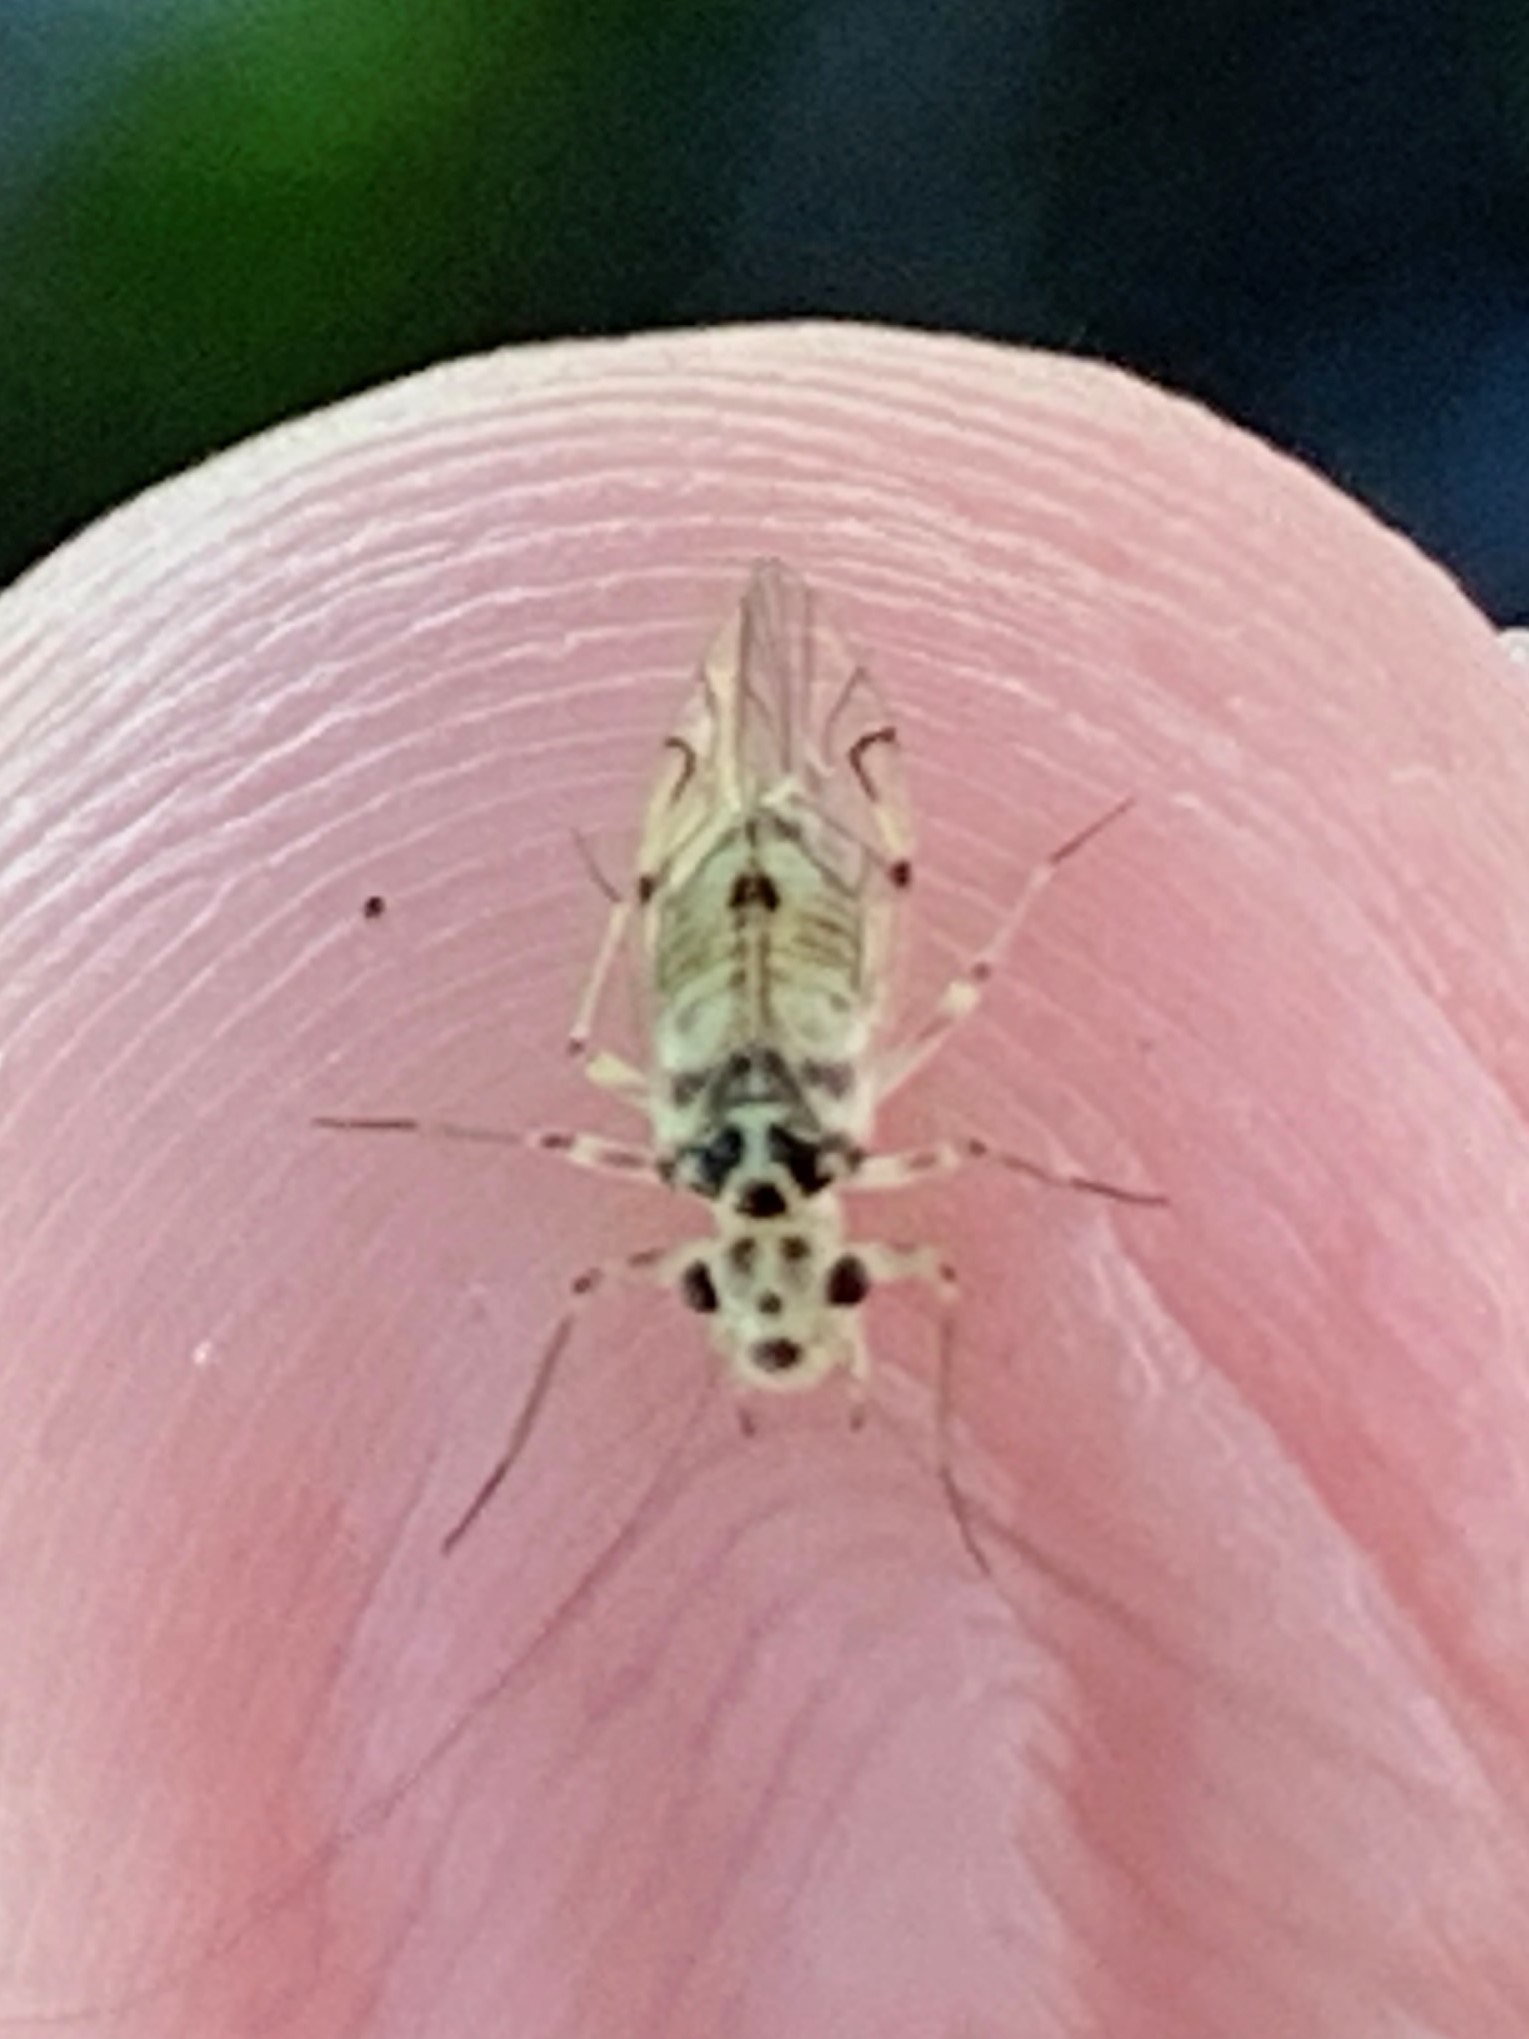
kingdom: Animalia
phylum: Arthropoda
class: Insecta
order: Psocodea
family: Psocidae
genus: Metylophorus
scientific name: Metylophorus purus
